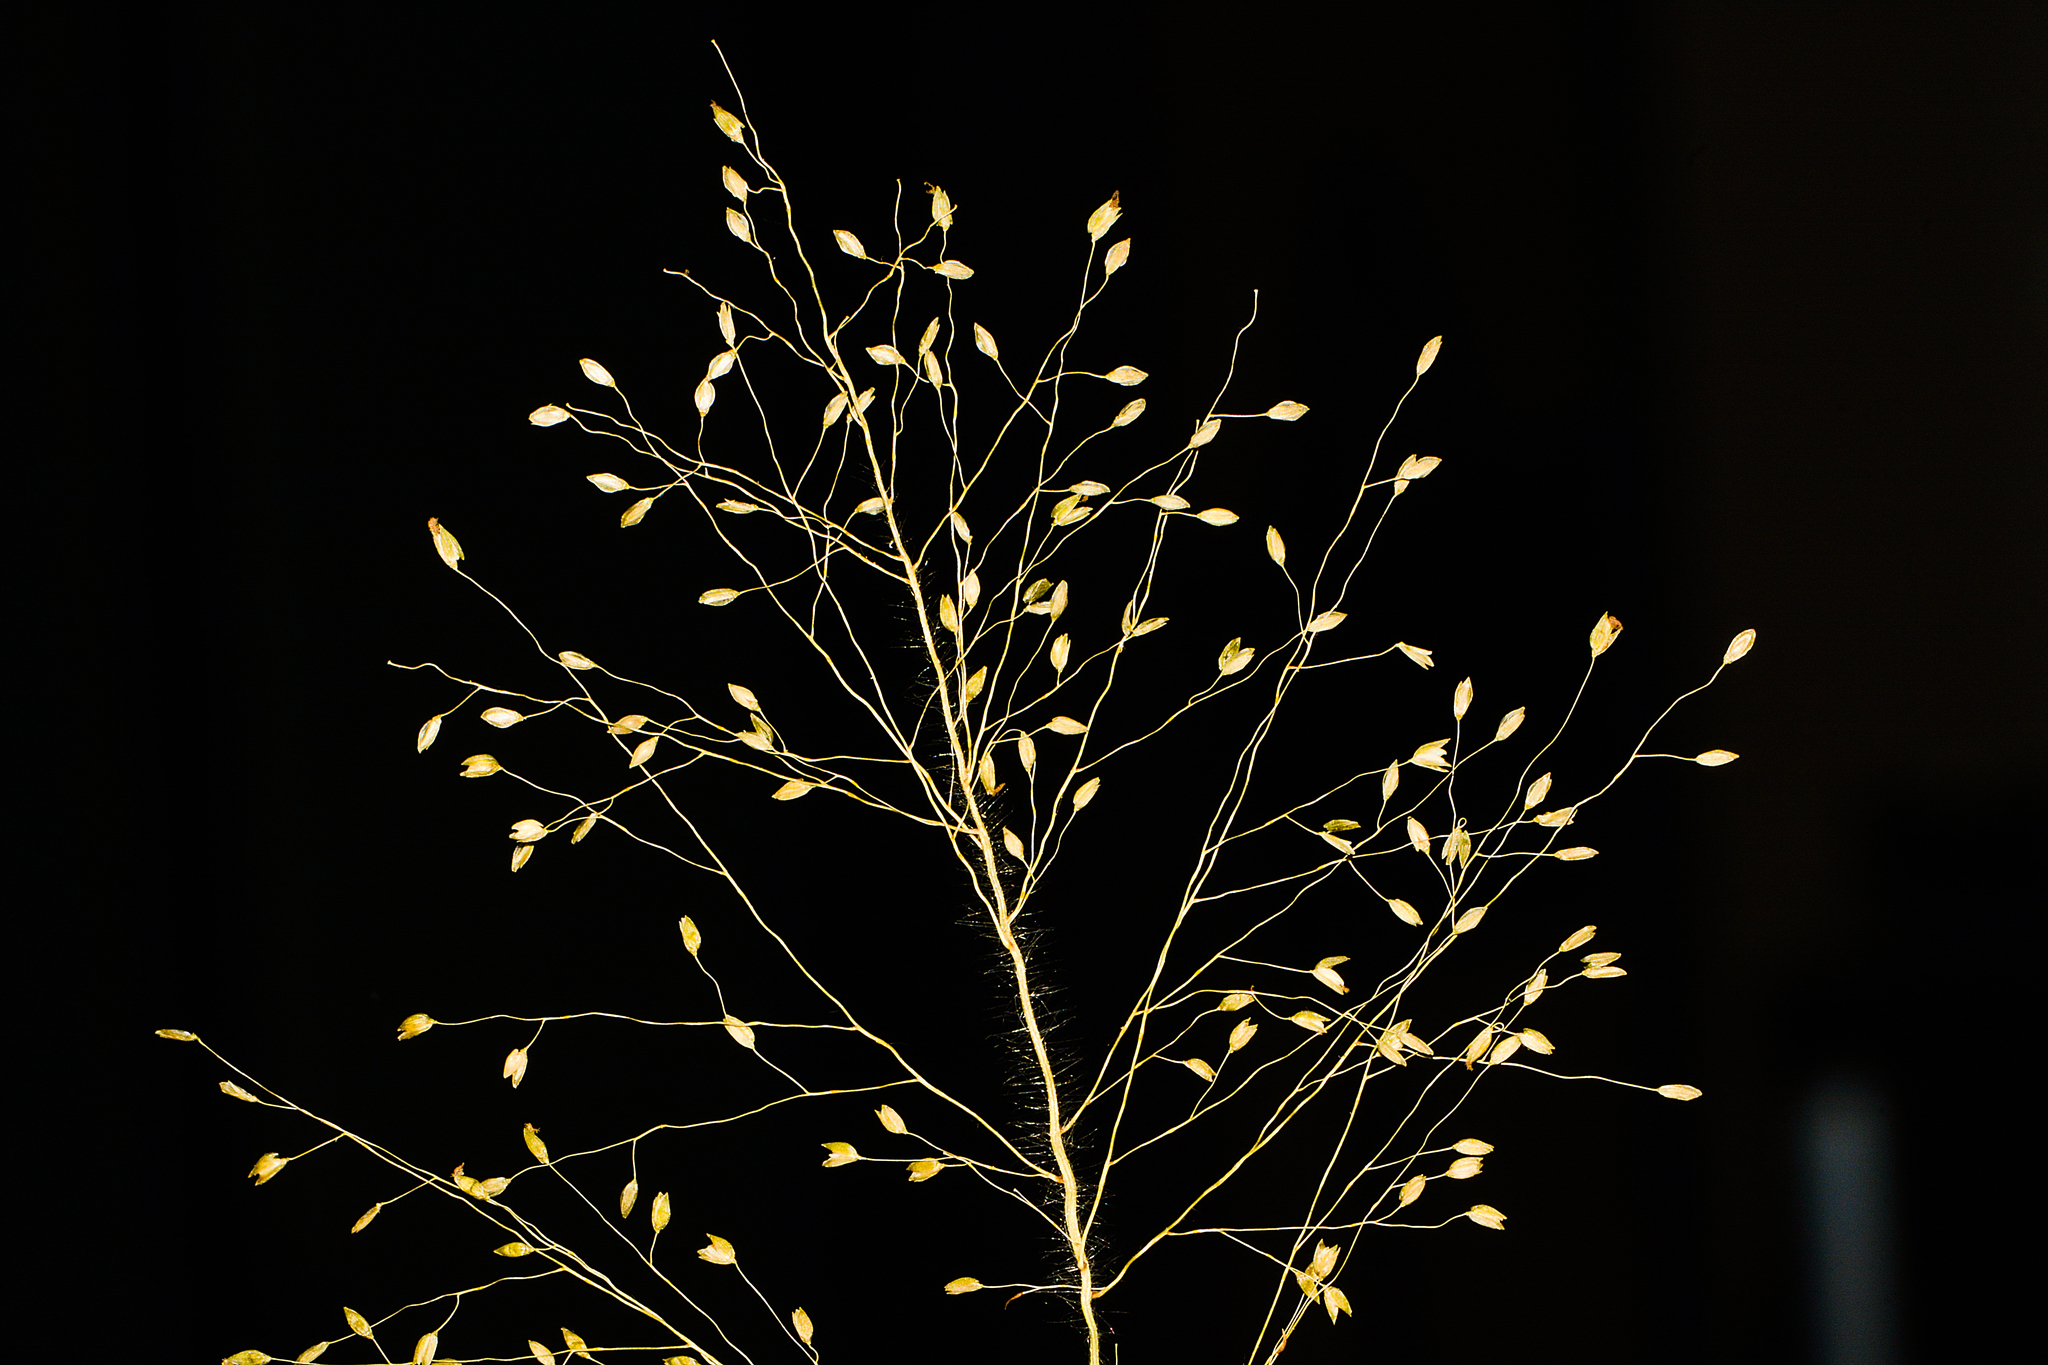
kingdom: Plantae
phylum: Tracheophyta
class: Liliopsida
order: Poales
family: Poaceae
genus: Isachne
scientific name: Isachne gracilis
